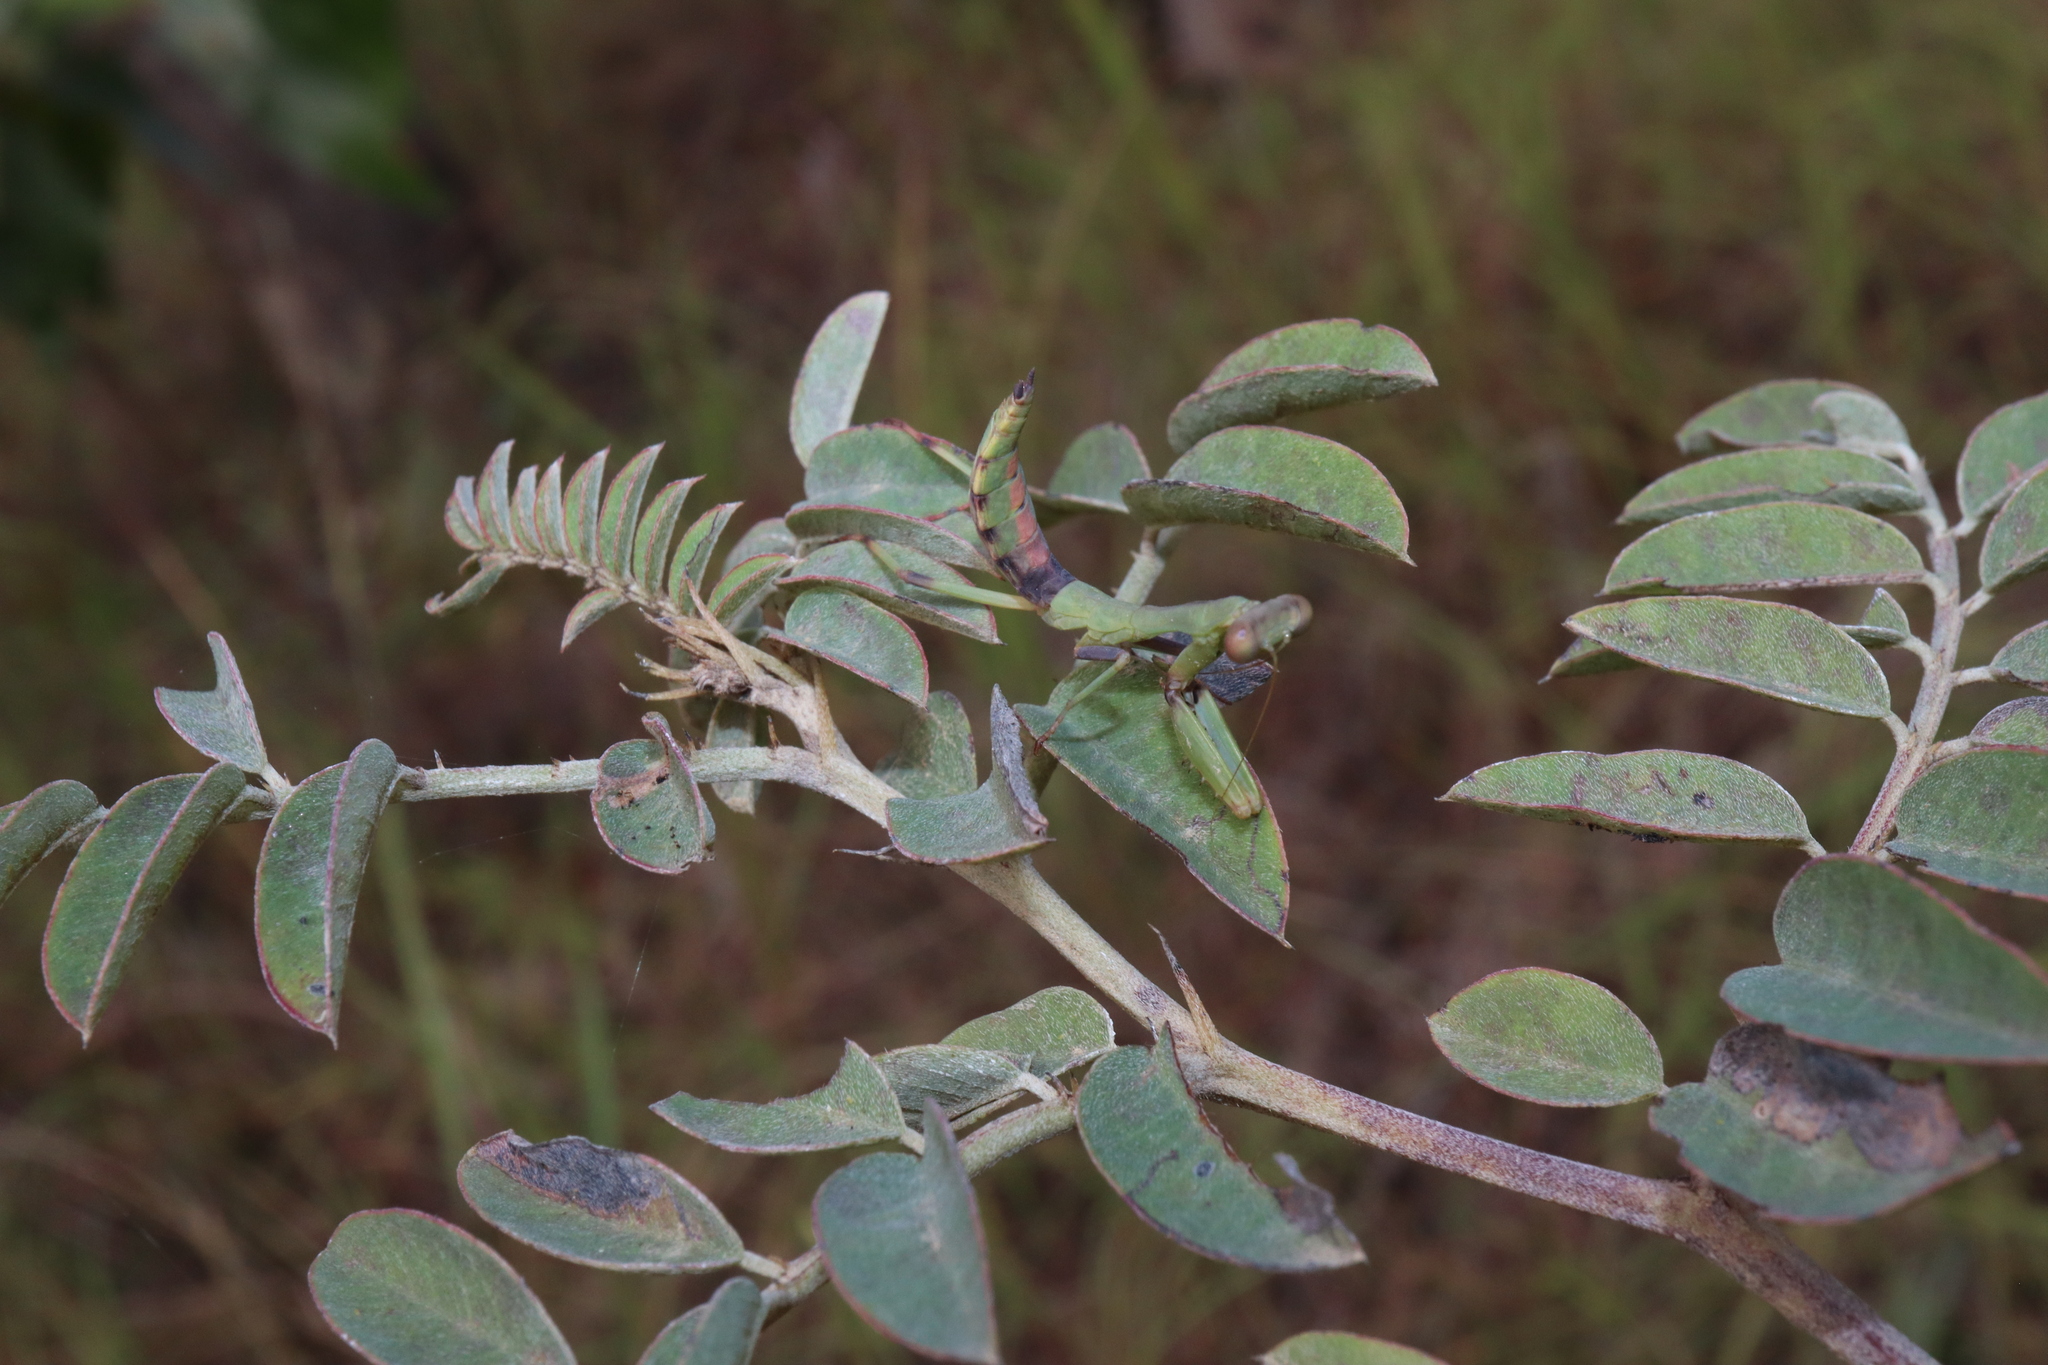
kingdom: Animalia
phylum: Arthropoda
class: Insecta
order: Mantodea
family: Mantidae
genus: Sphodropoda
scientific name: Sphodropoda quinquedens
